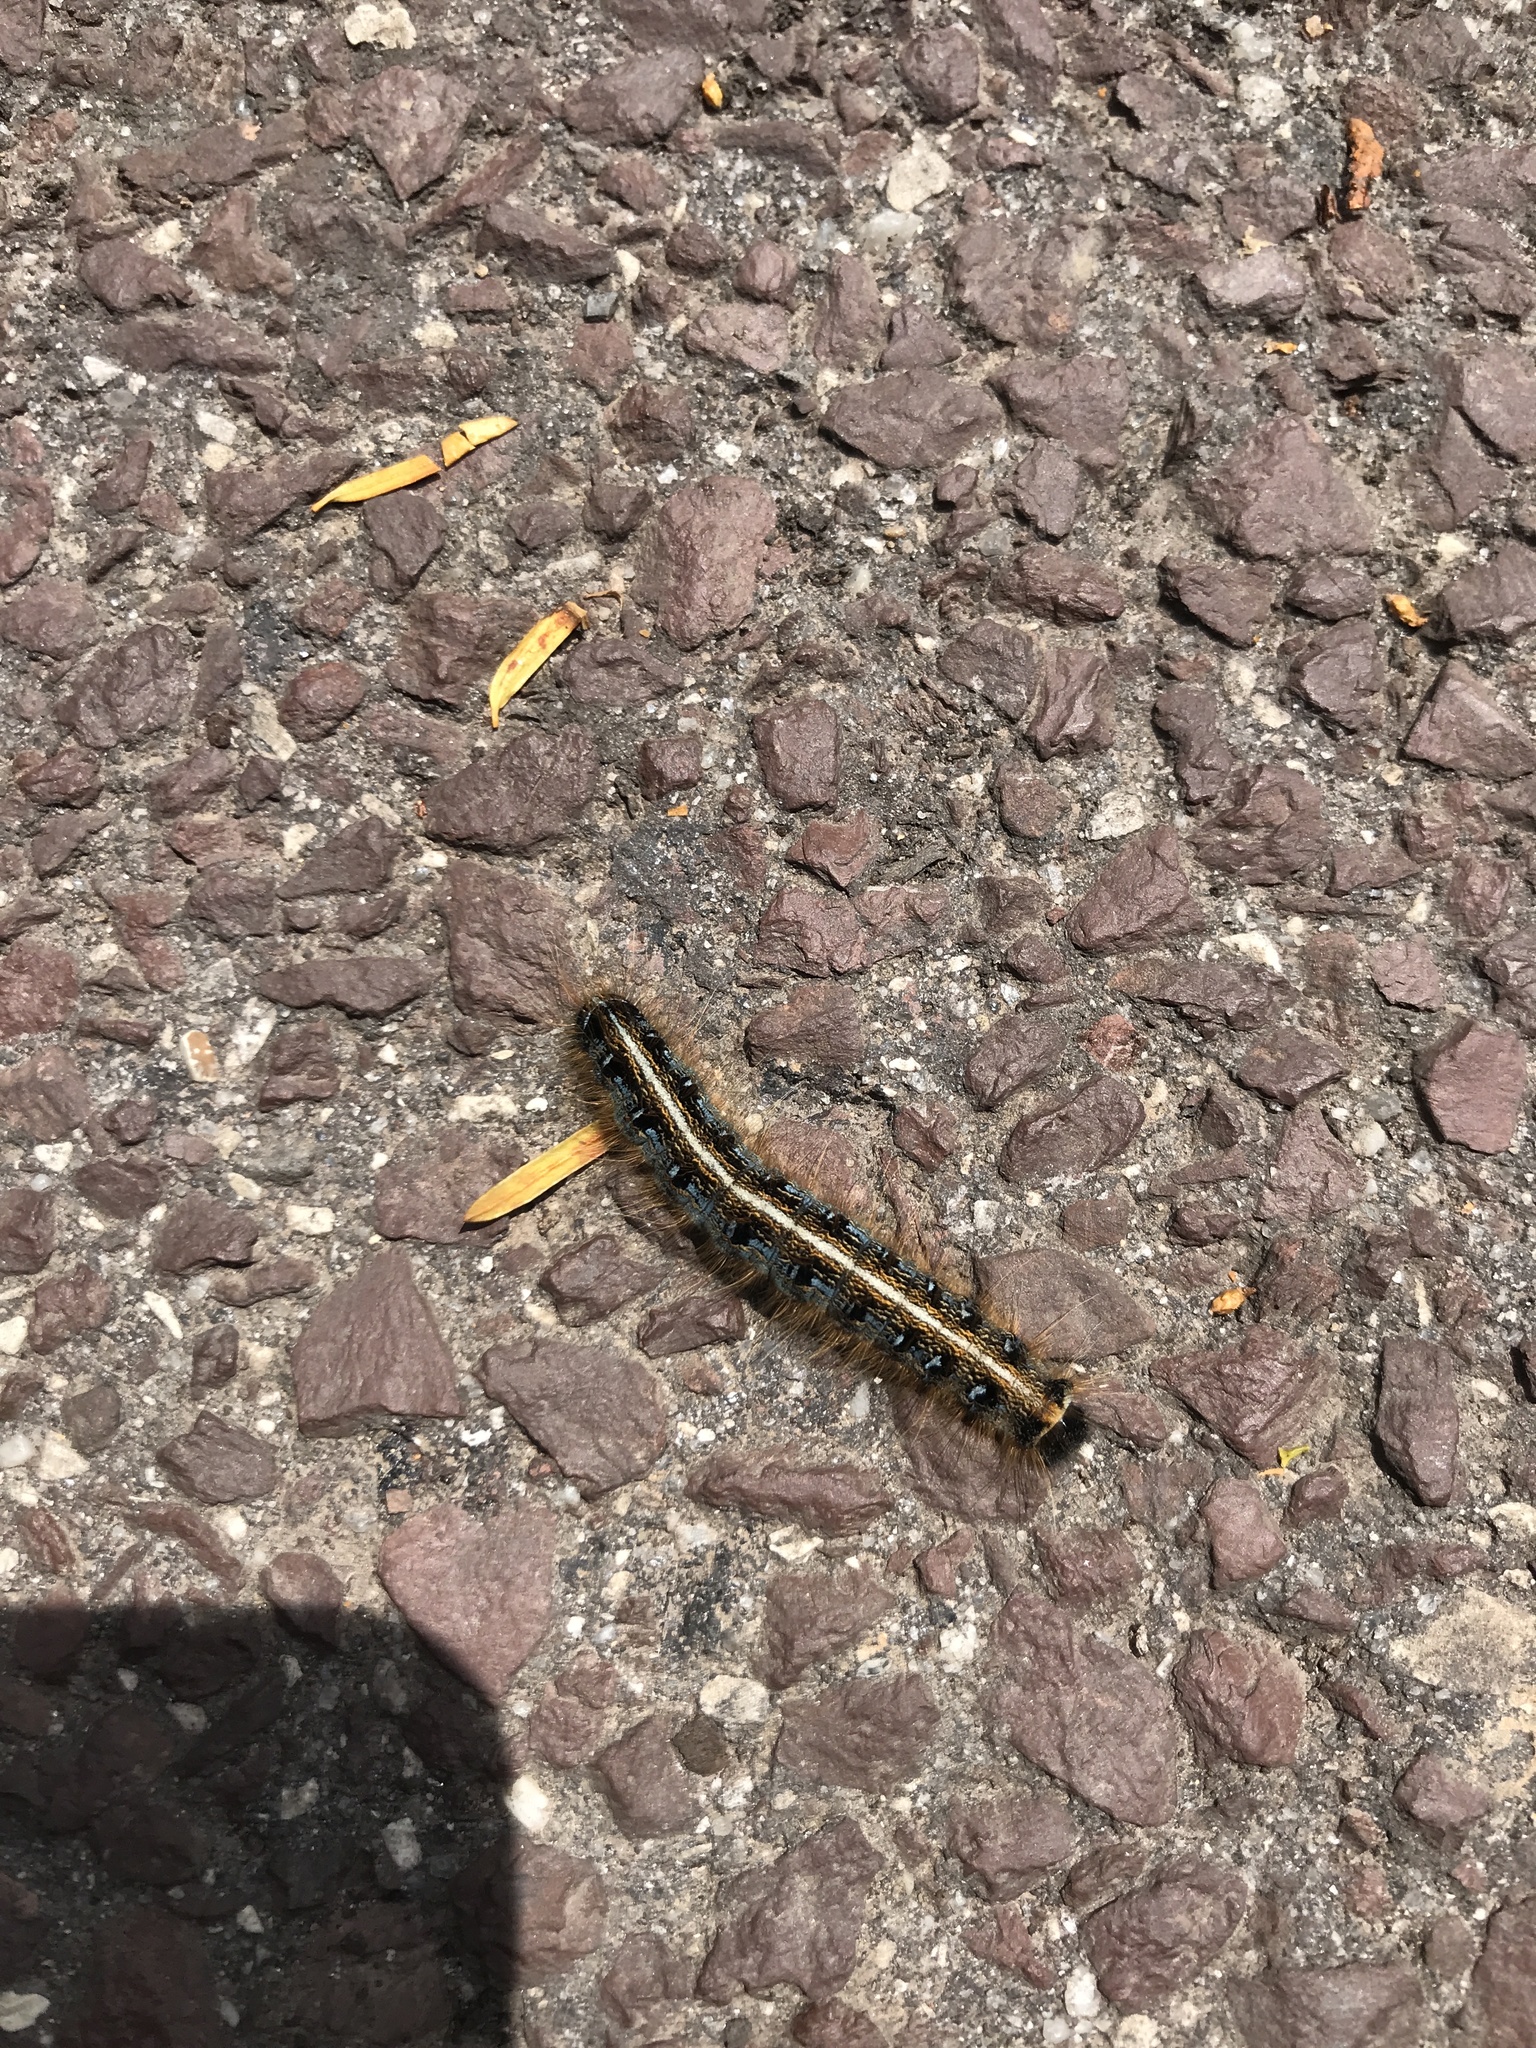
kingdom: Animalia
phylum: Arthropoda
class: Insecta
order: Lepidoptera
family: Lasiocampidae
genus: Malacosoma
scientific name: Malacosoma americana
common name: Eastern tent caterpillar moth
